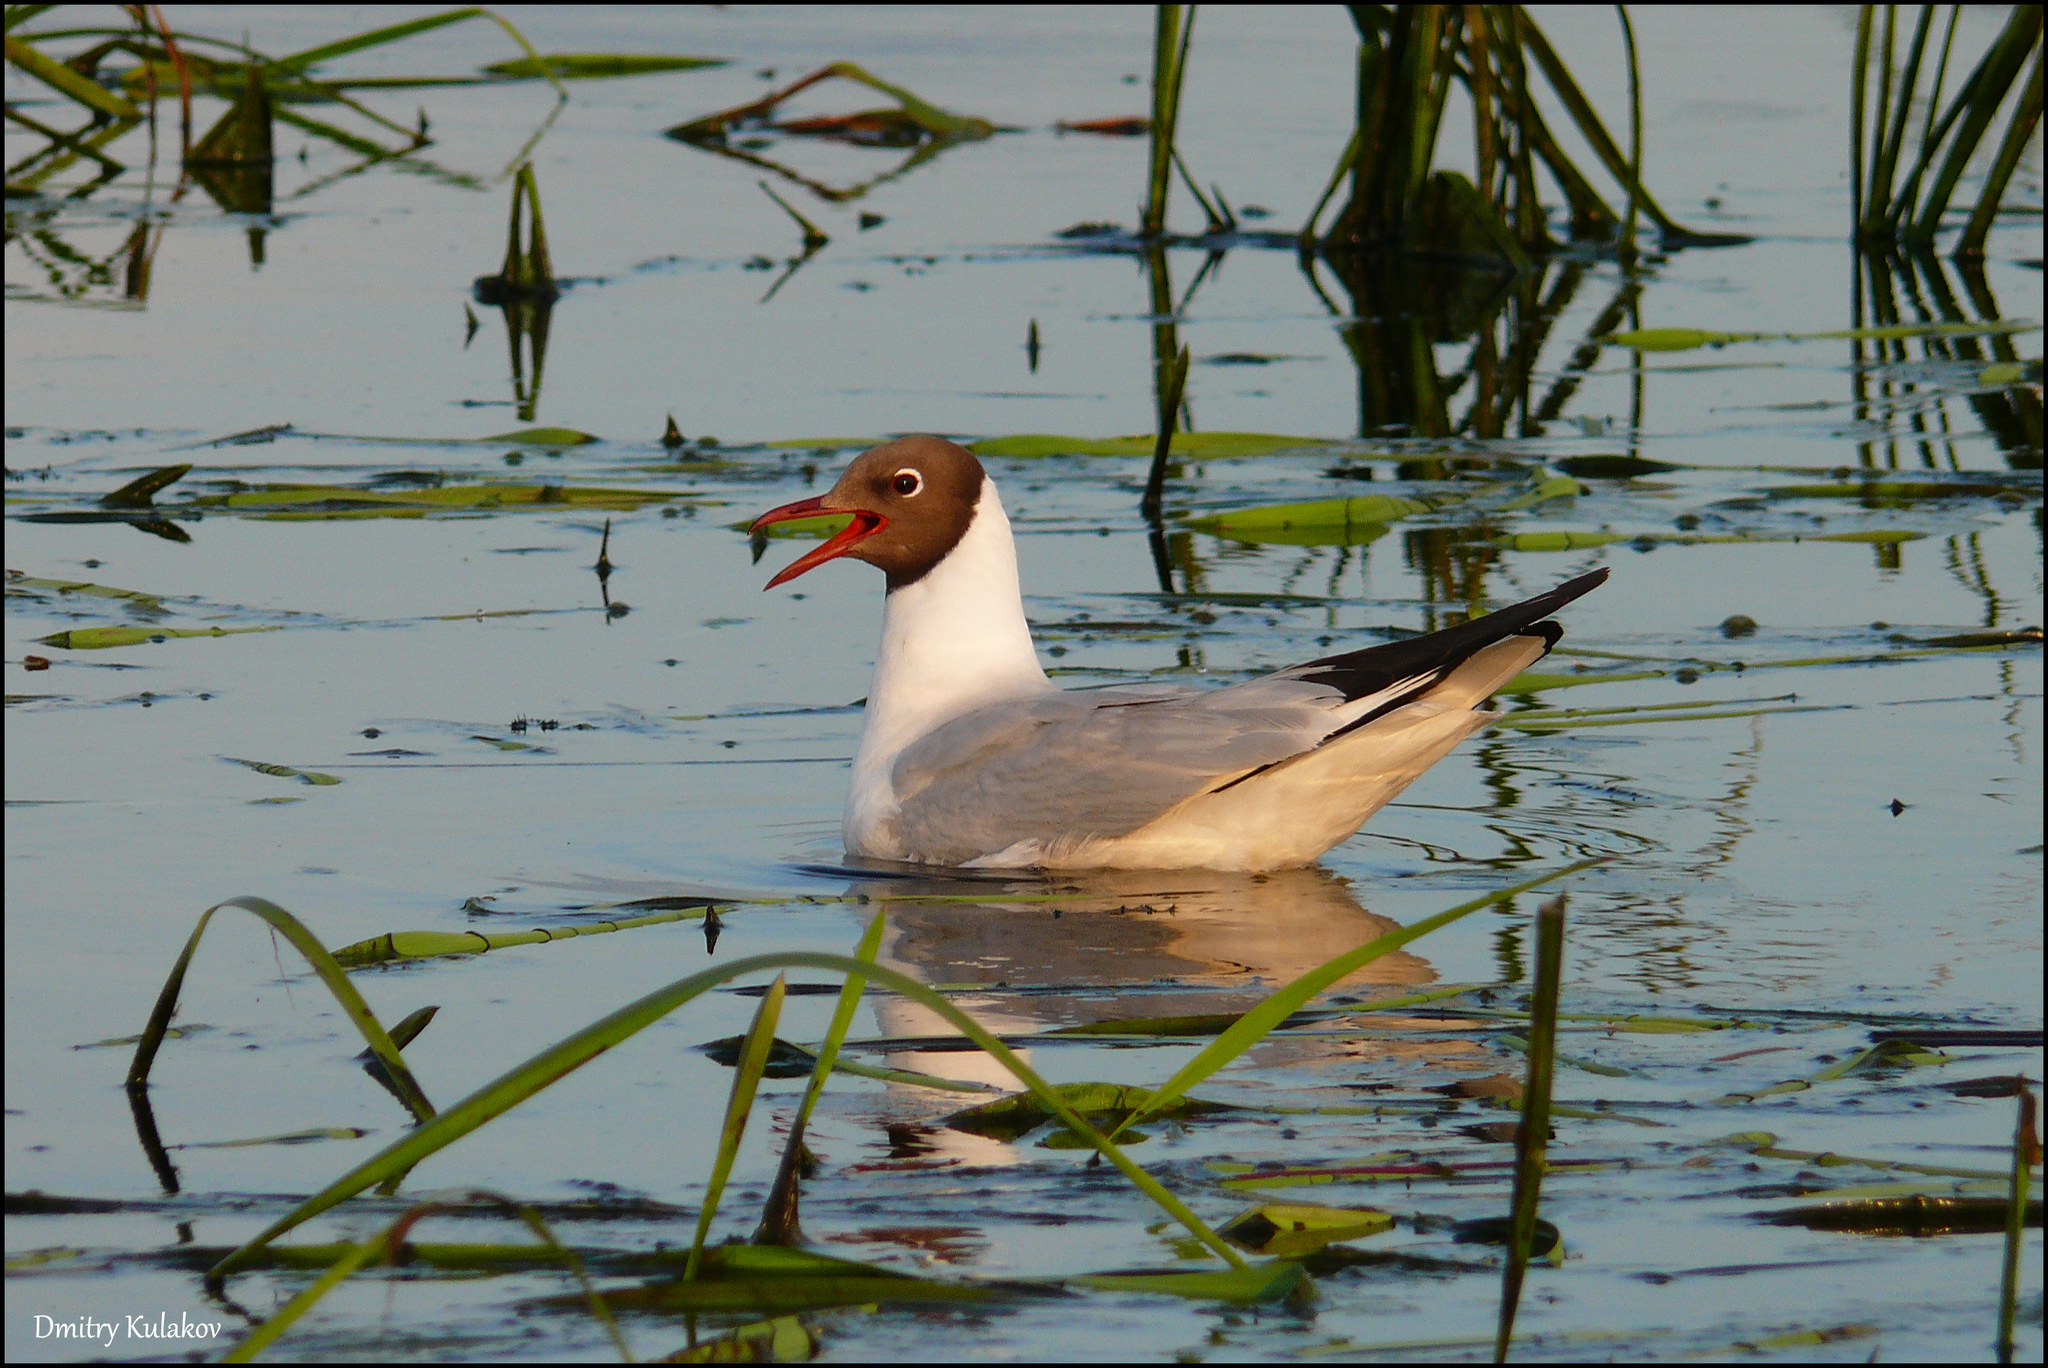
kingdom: Animalia
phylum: Chordata
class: Aves
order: Charadriiformes
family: Laridae
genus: Chroicocephalus
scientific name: Chroicocephalus ridibundus
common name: Black-headed gull
